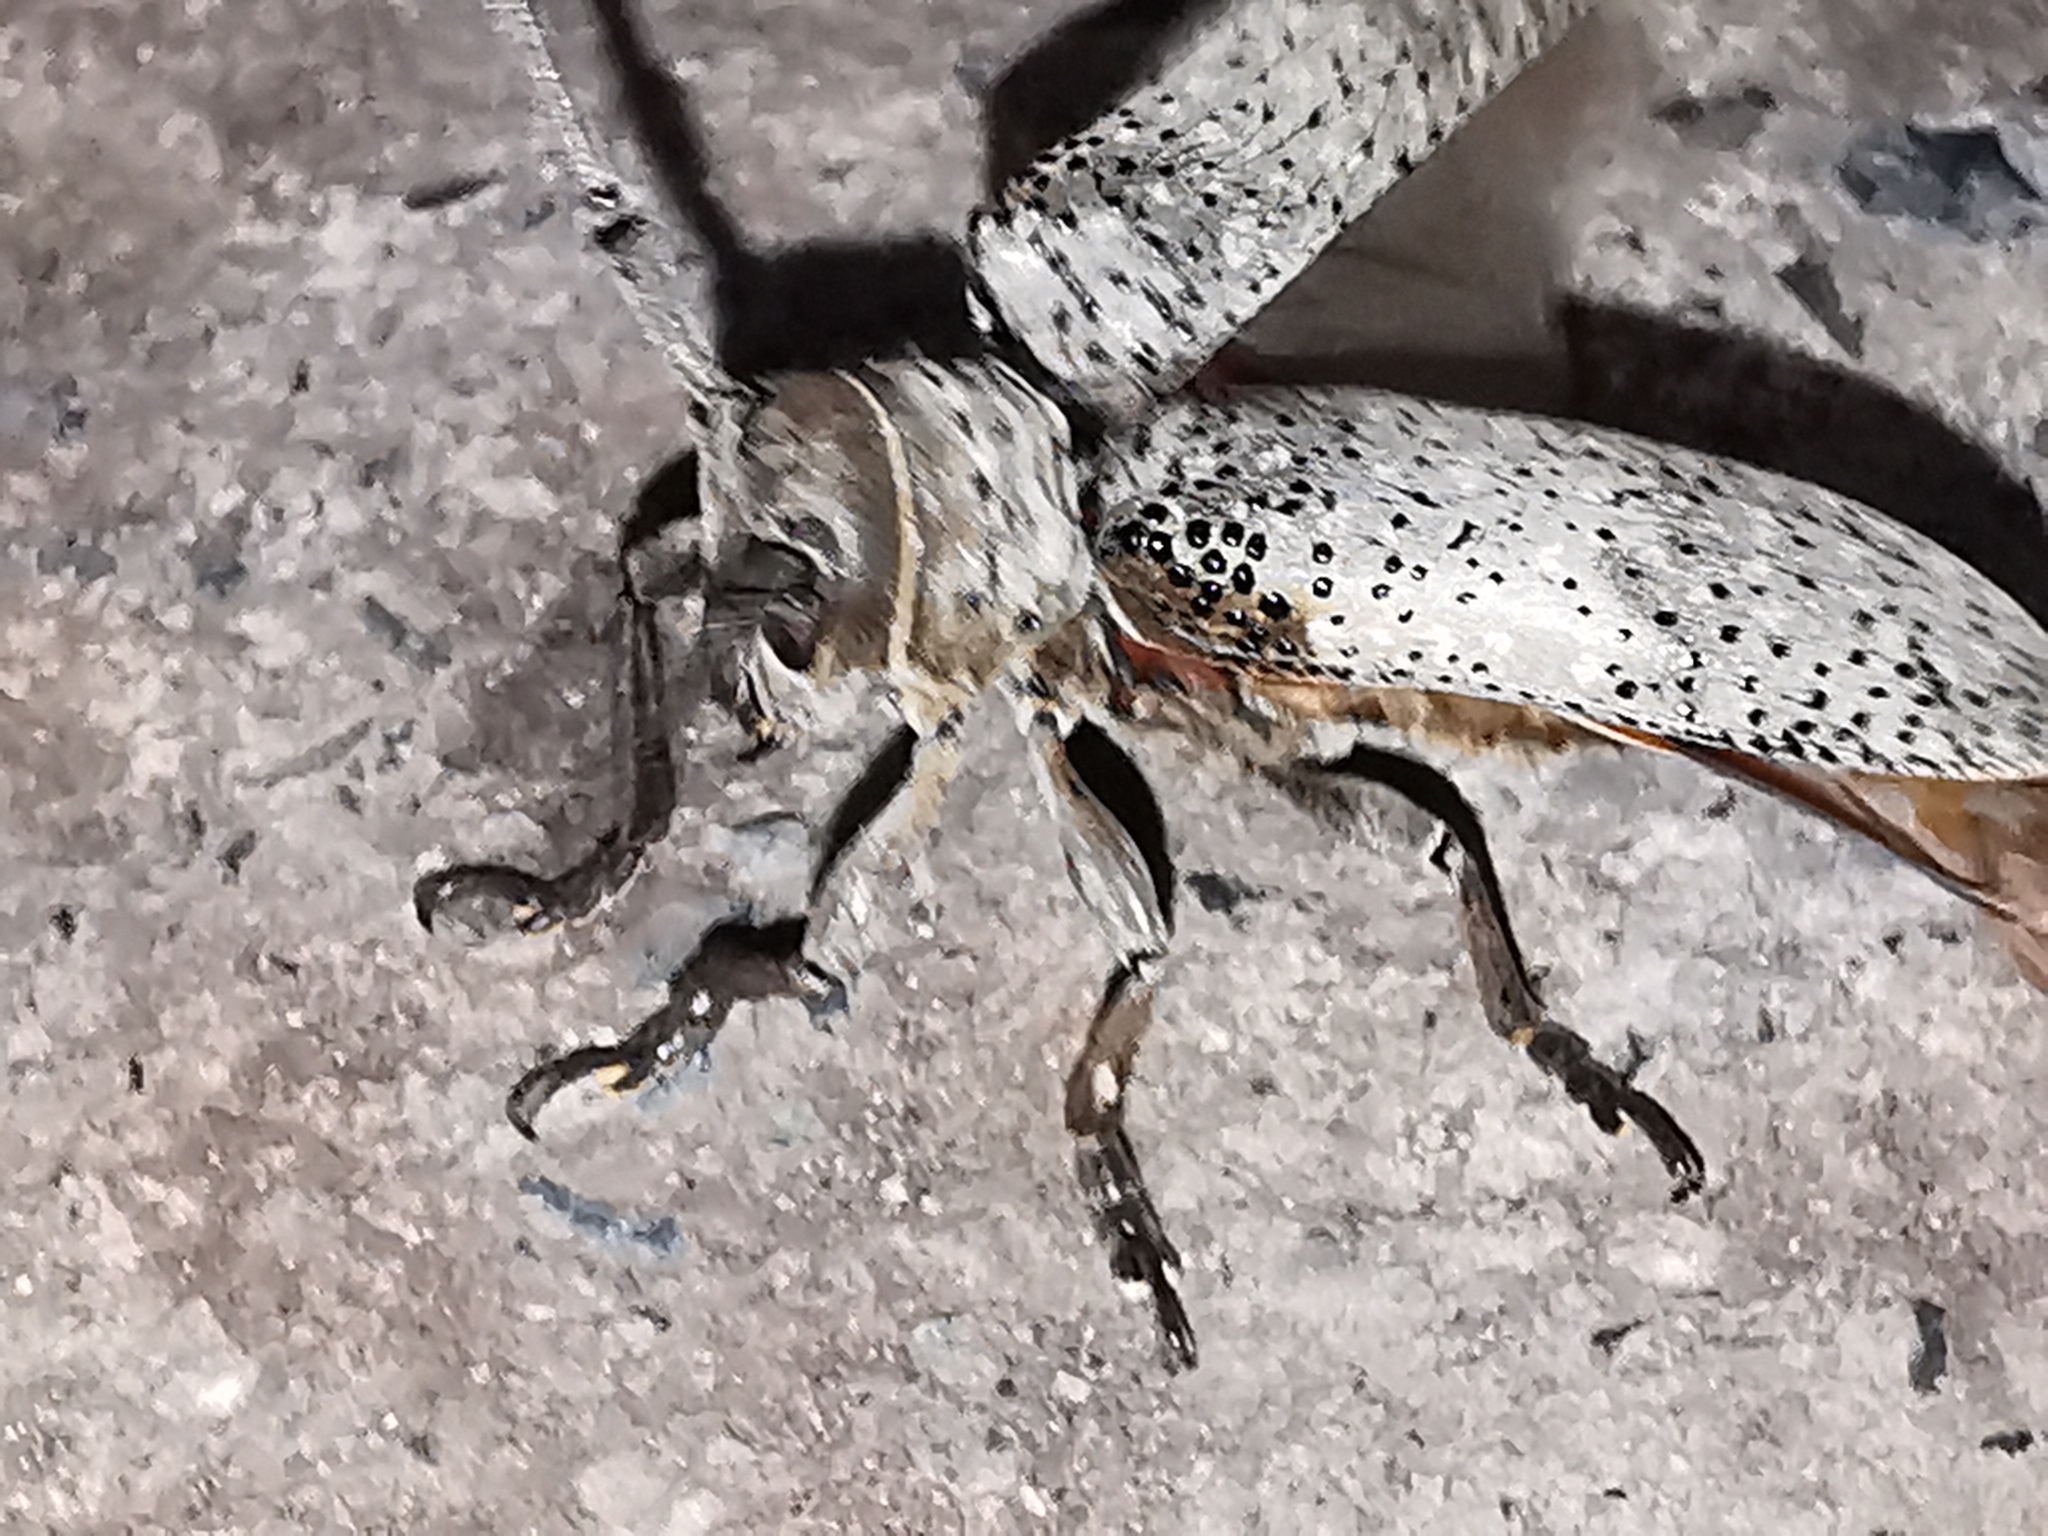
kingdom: Animalia
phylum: Arthropoda
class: Insecta
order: Coleoptera
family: Cerambycidae
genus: Oncideres
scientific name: Oncideres pustulata
